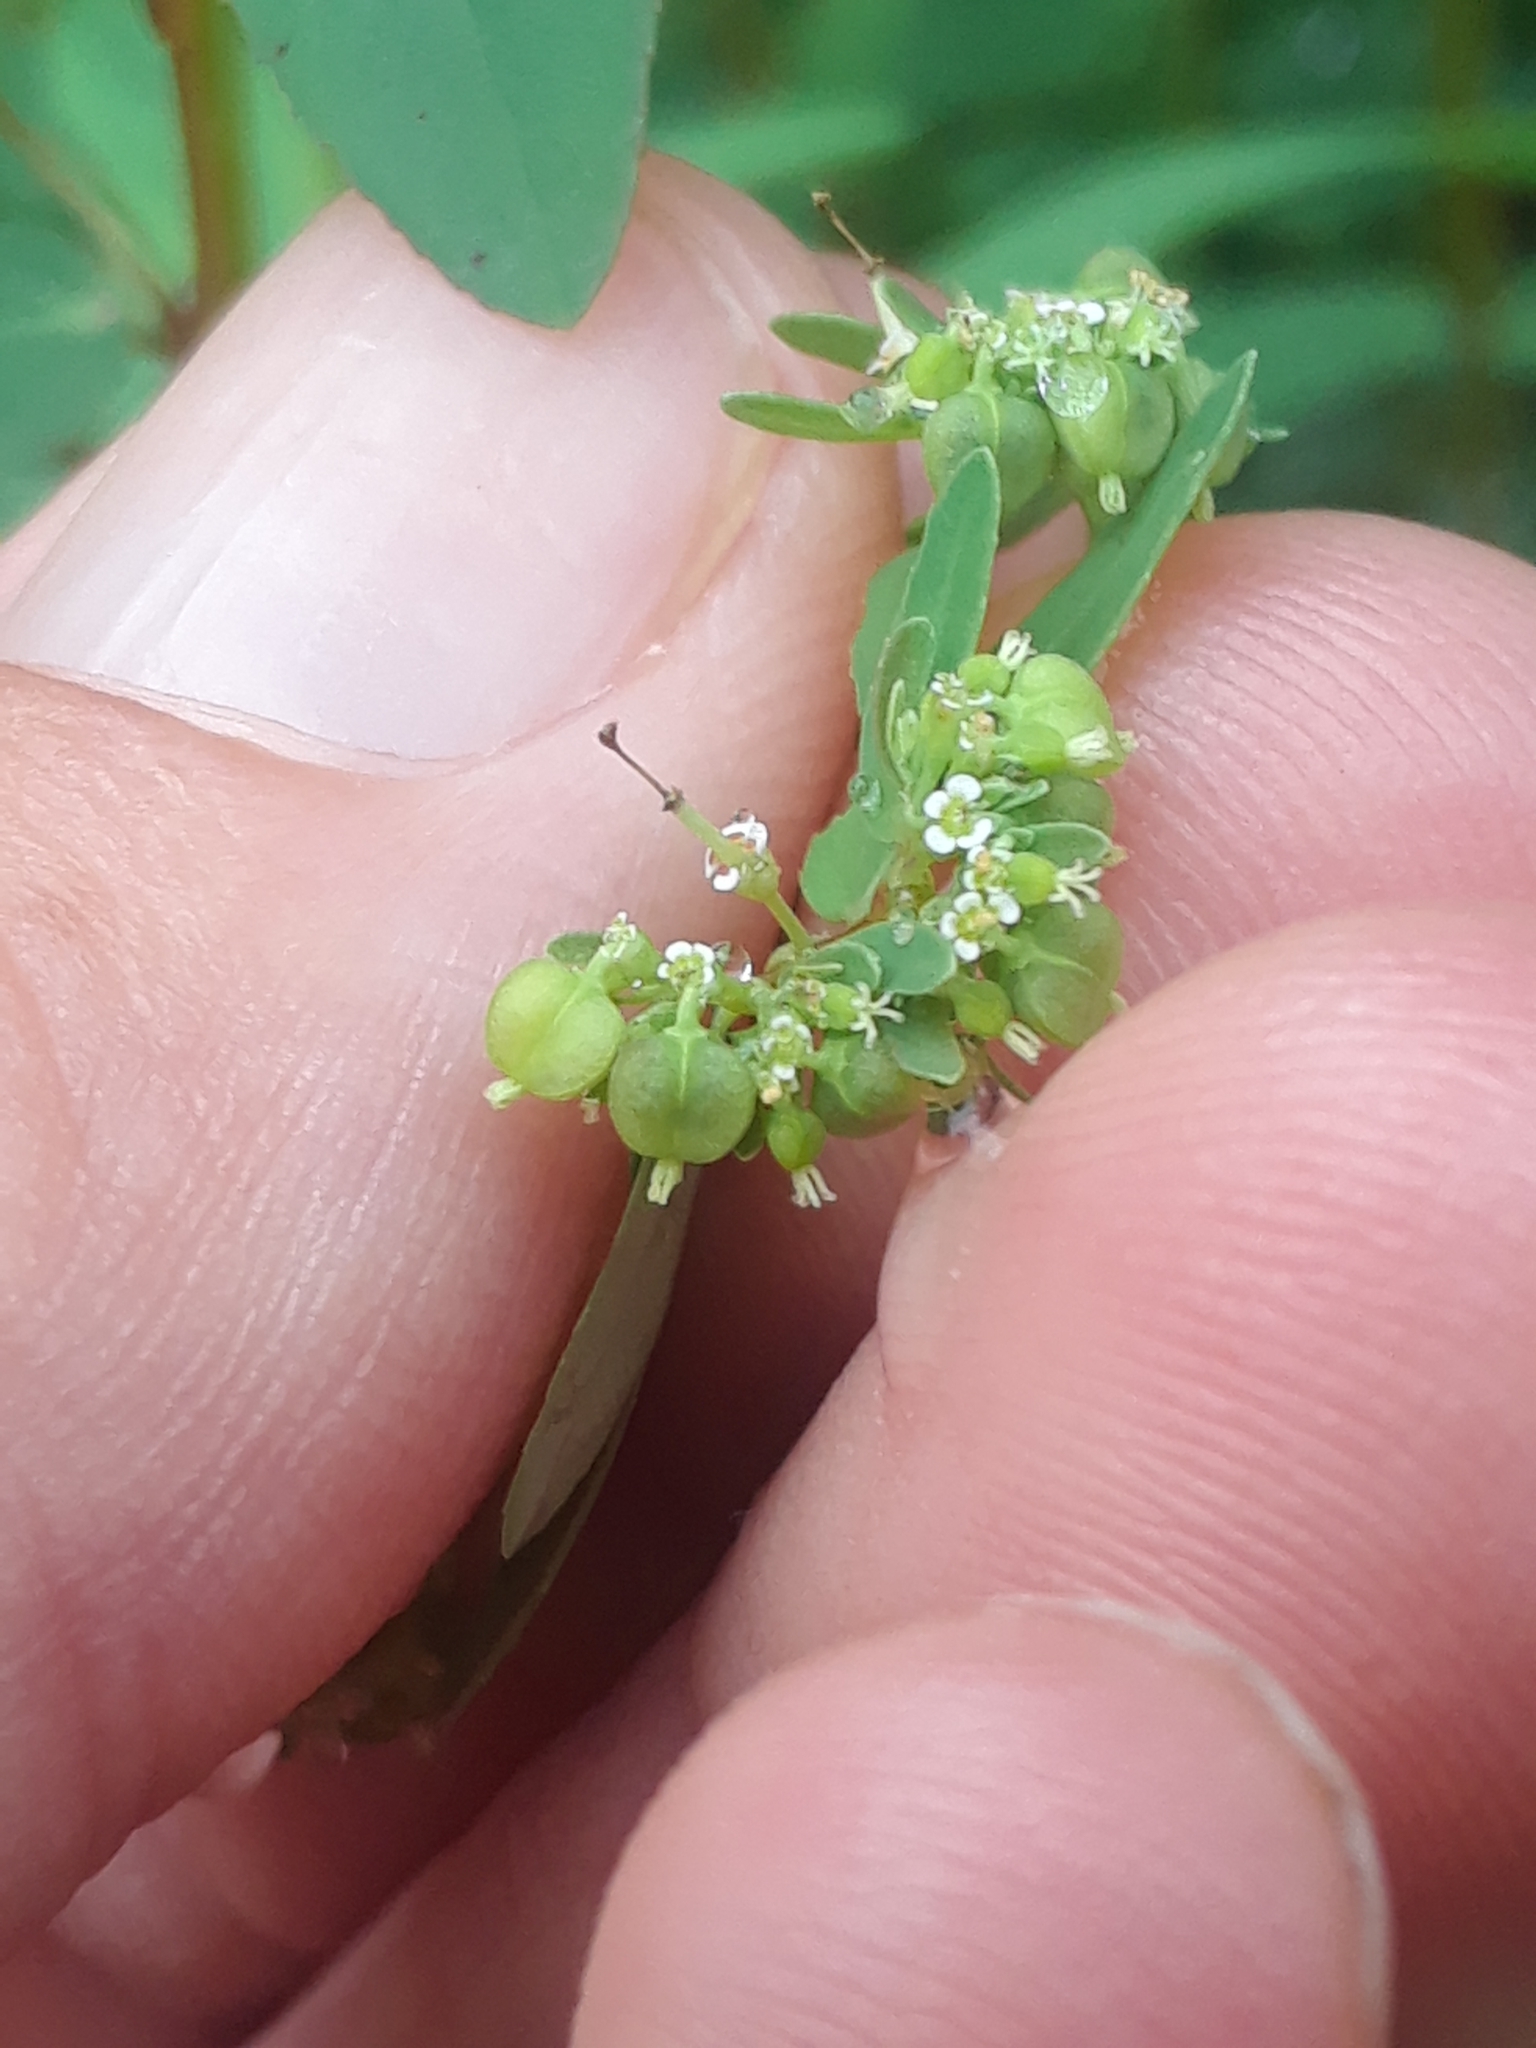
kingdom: Plantae
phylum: Tracheophyta
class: Magnoliopsida
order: Malpighiales
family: Euphorbiaceae
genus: Euphorbia
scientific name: Euphorbia hyssopifolia
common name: Hyssopleaf sandmat
